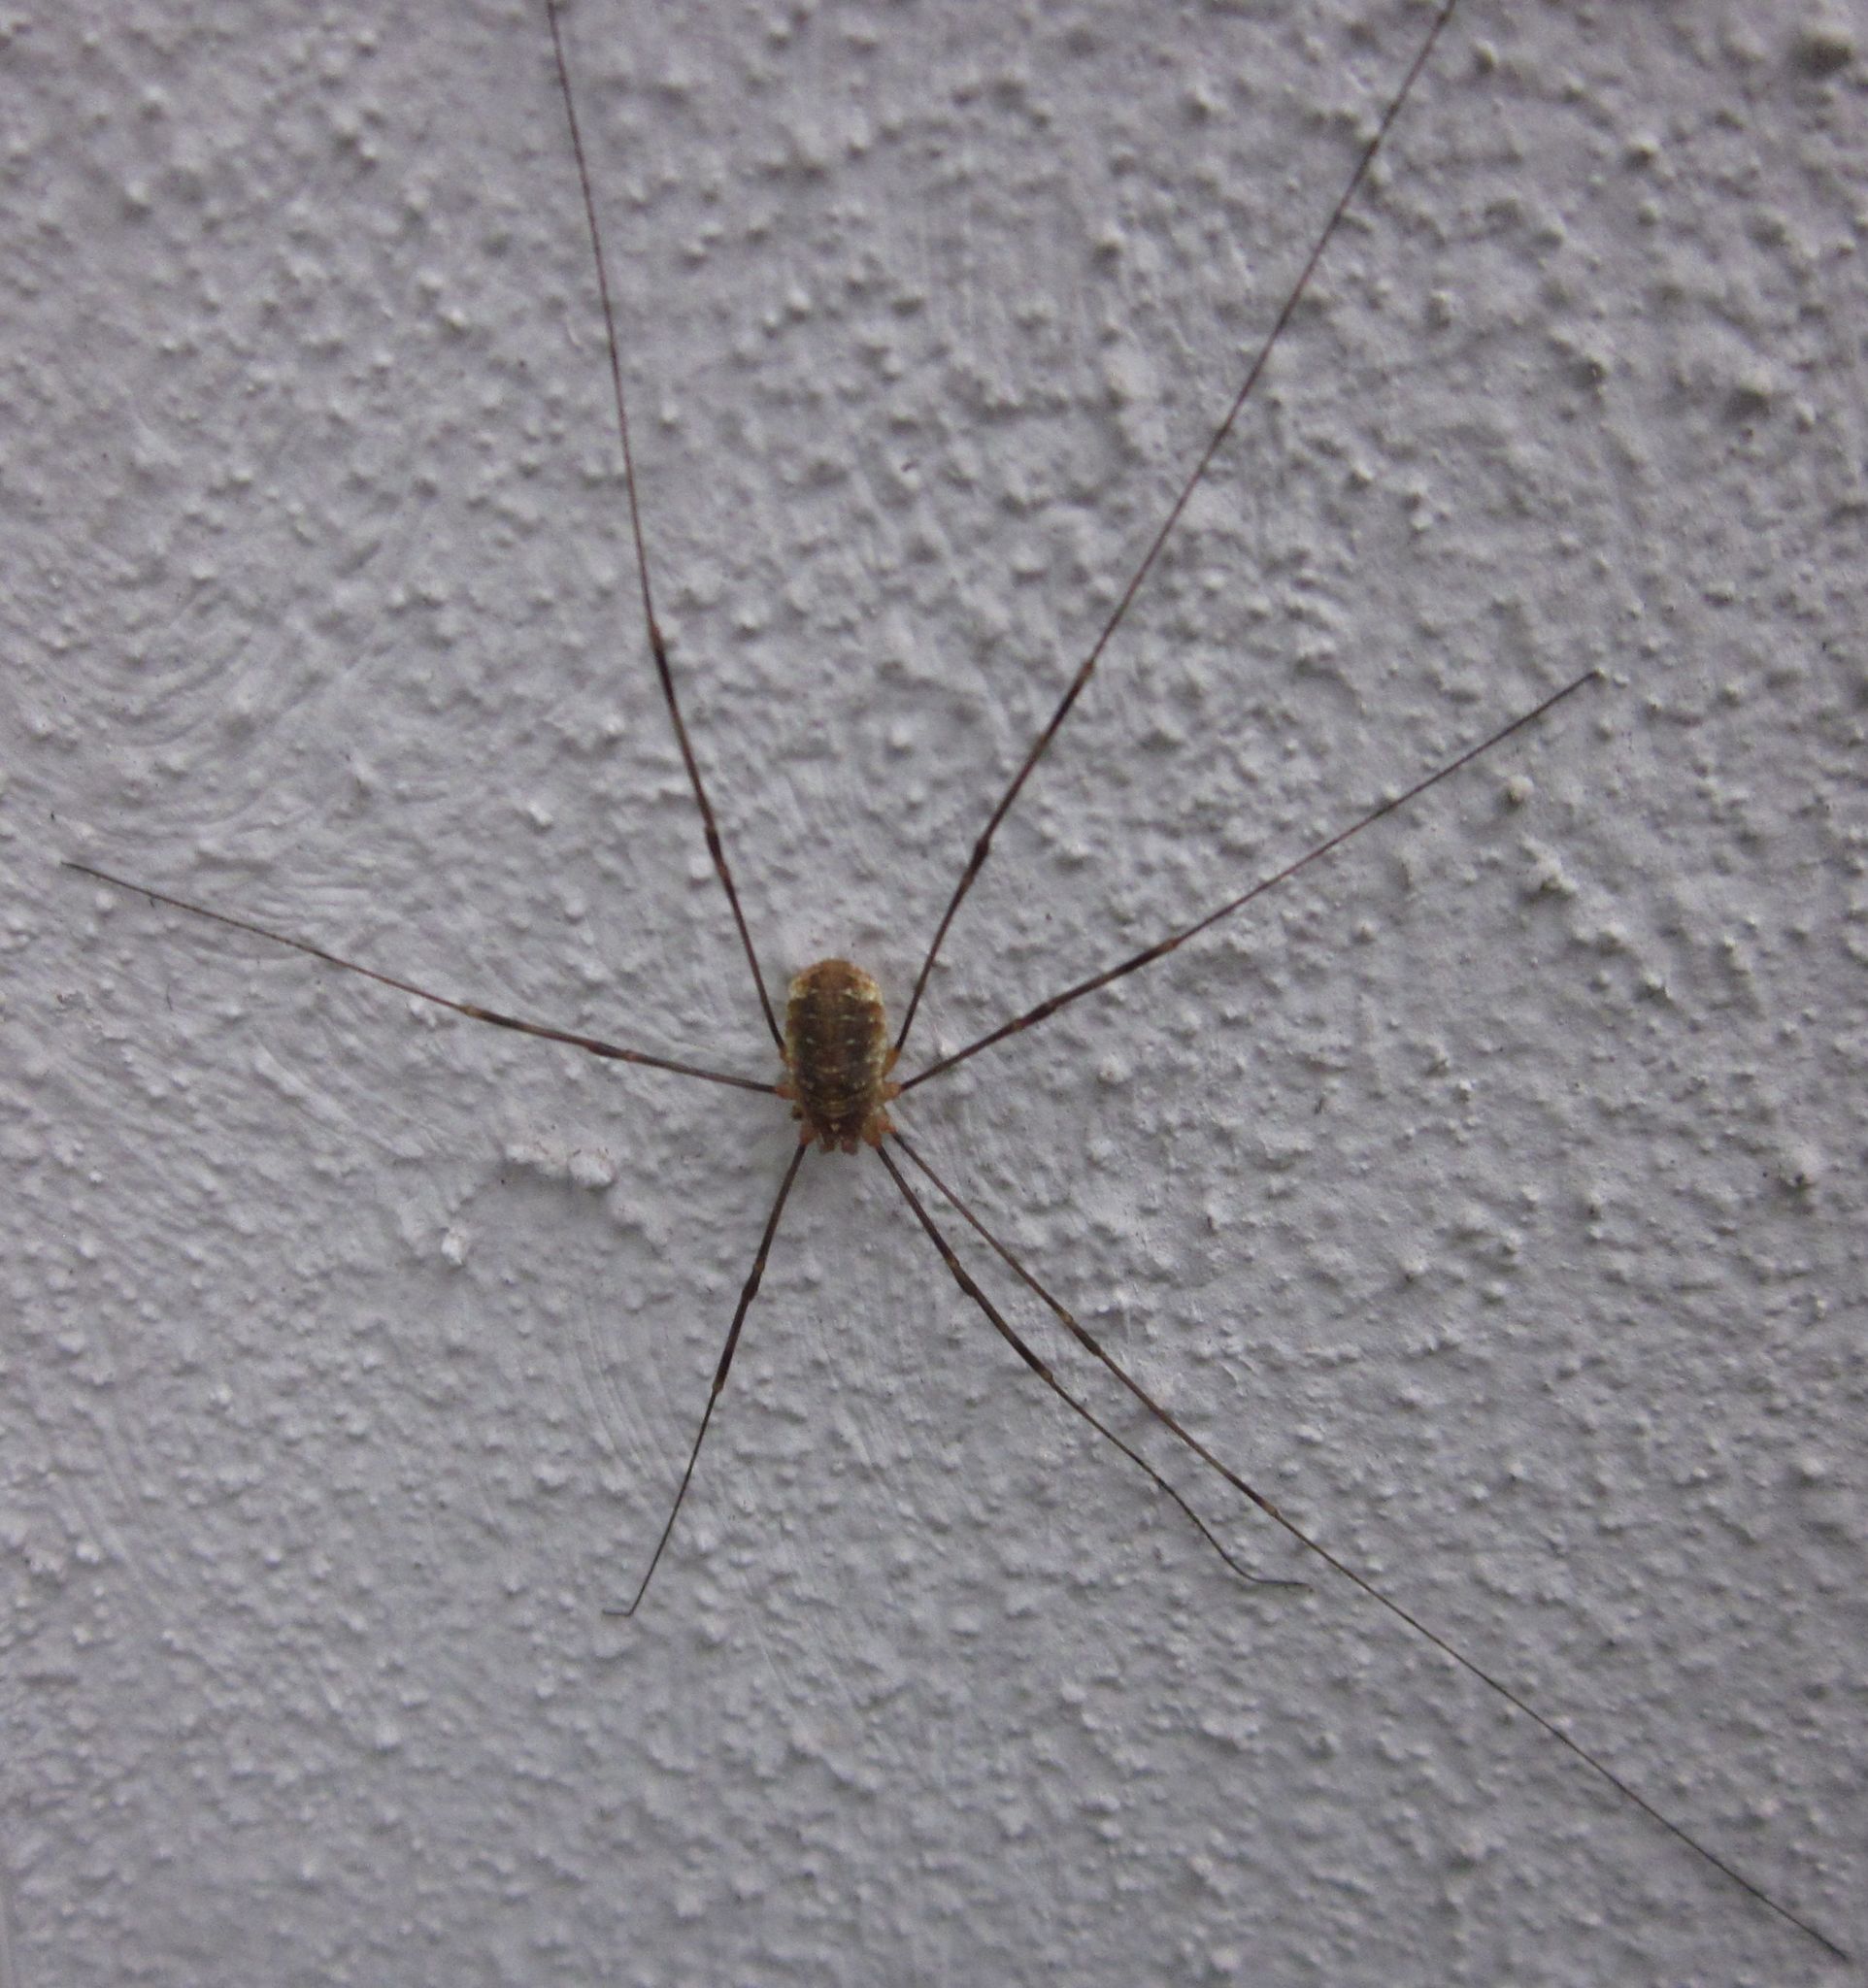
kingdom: Animalia
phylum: Arthropoda
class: Arachnida
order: Opiliones
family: Phalangiidae
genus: Opilio
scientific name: Opilio canestrinii
